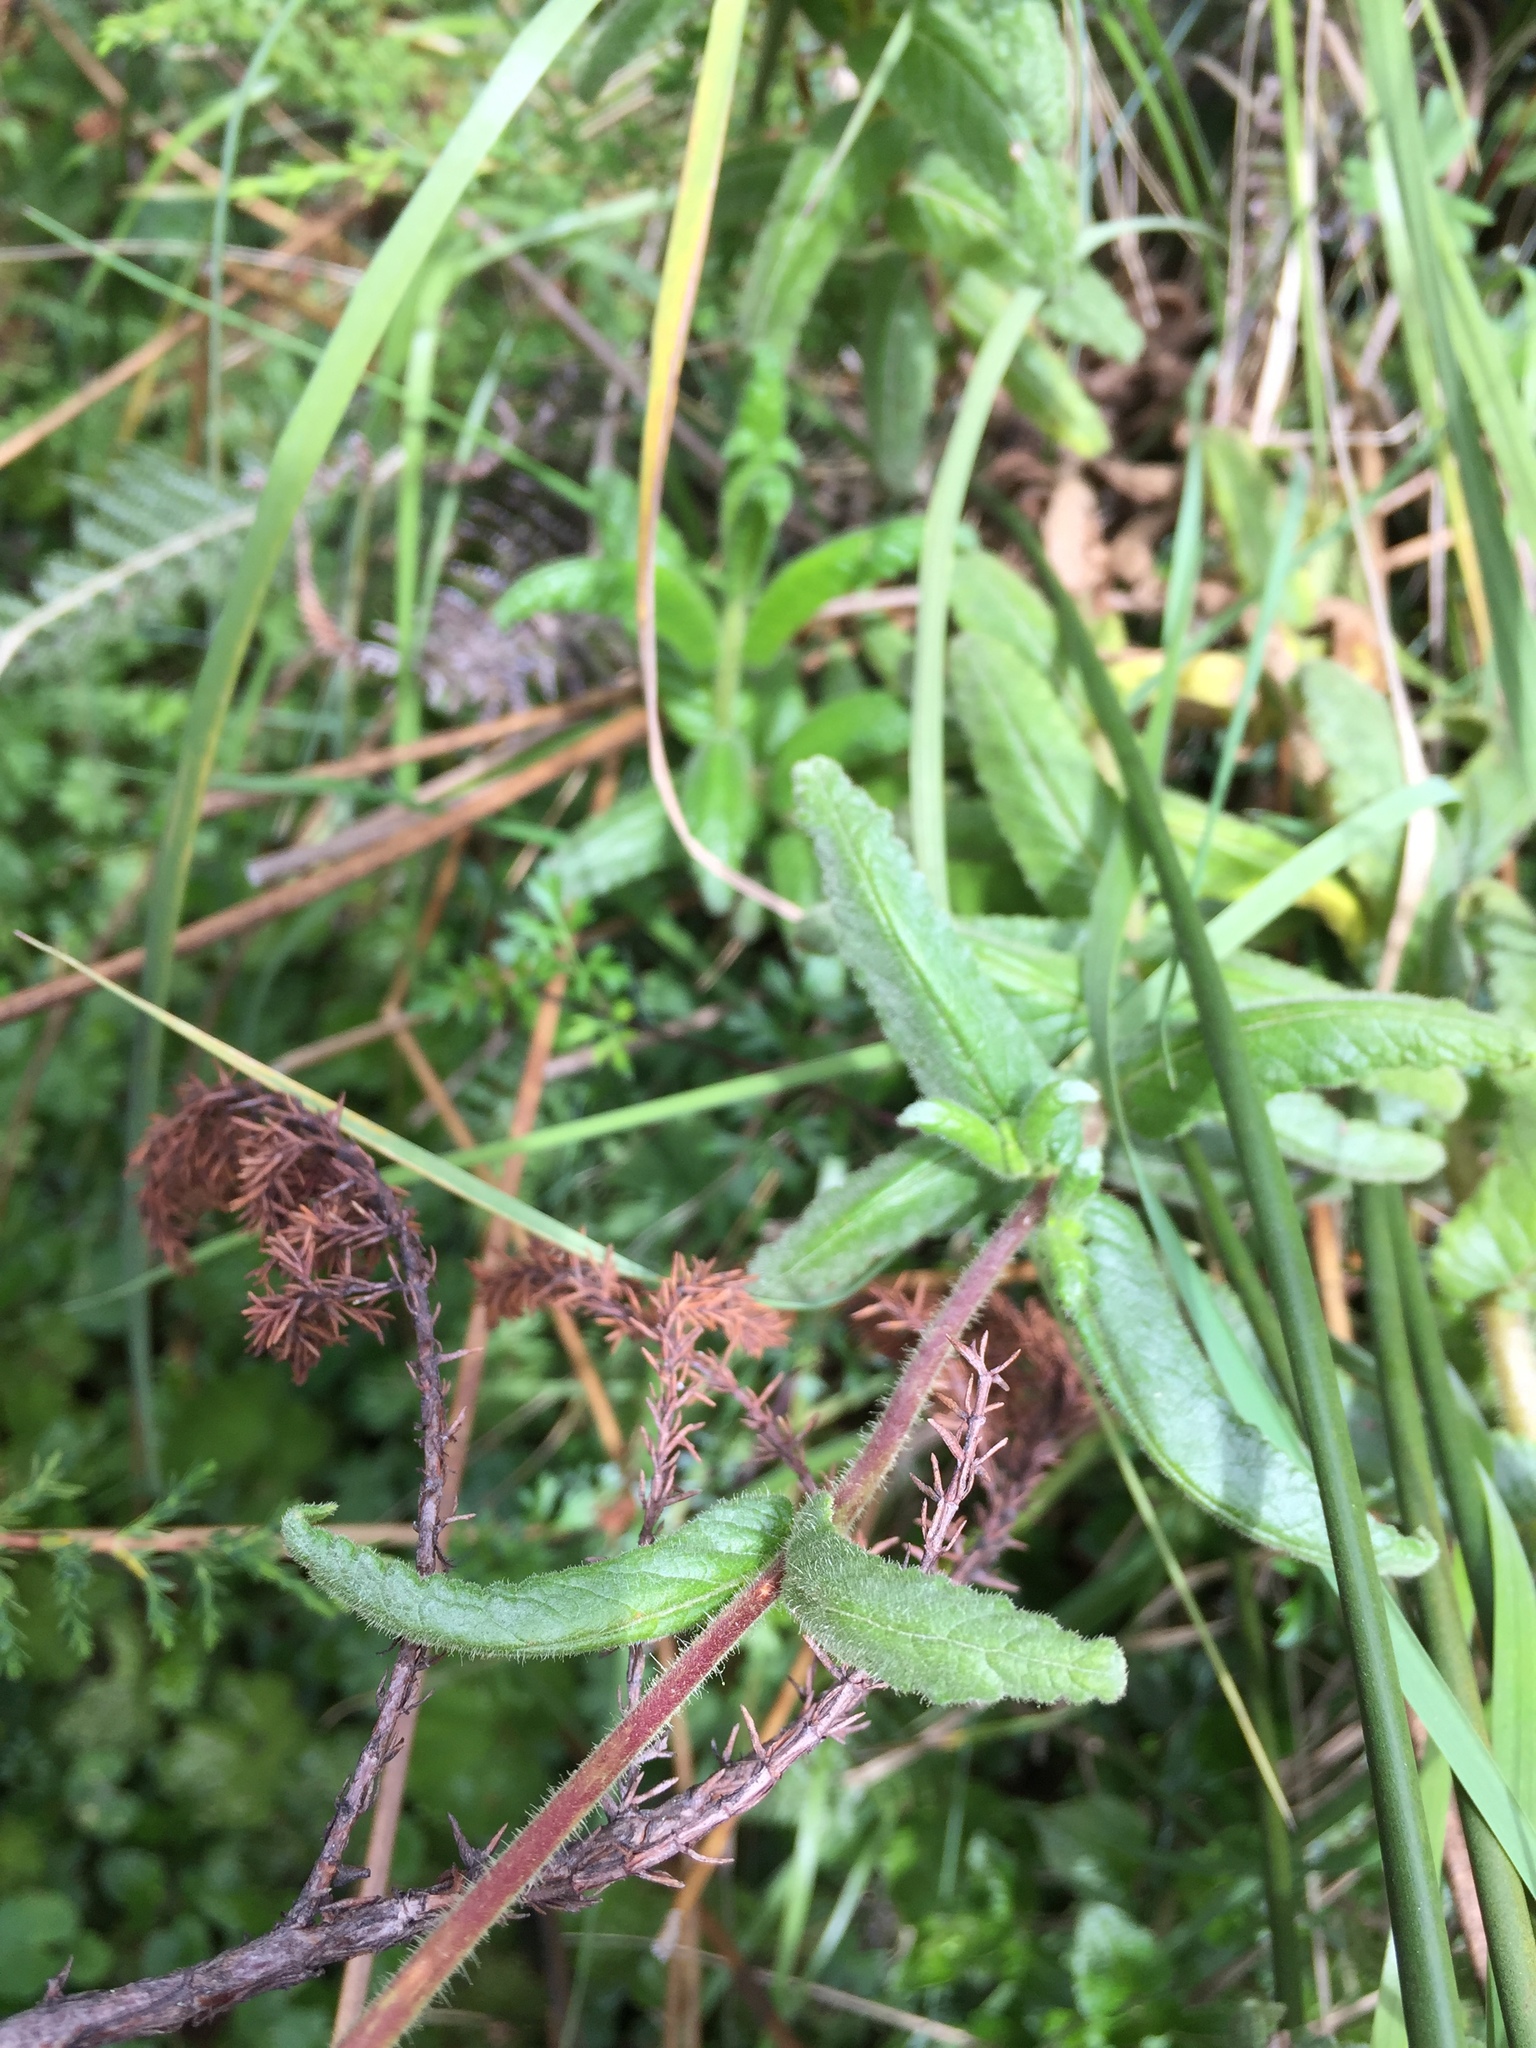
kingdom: Plantae
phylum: Tracheophyta
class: Magnoliopsida
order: Lamiales
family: Calceolariaceae
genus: Calceolaria
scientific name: Calceolaria crenata
